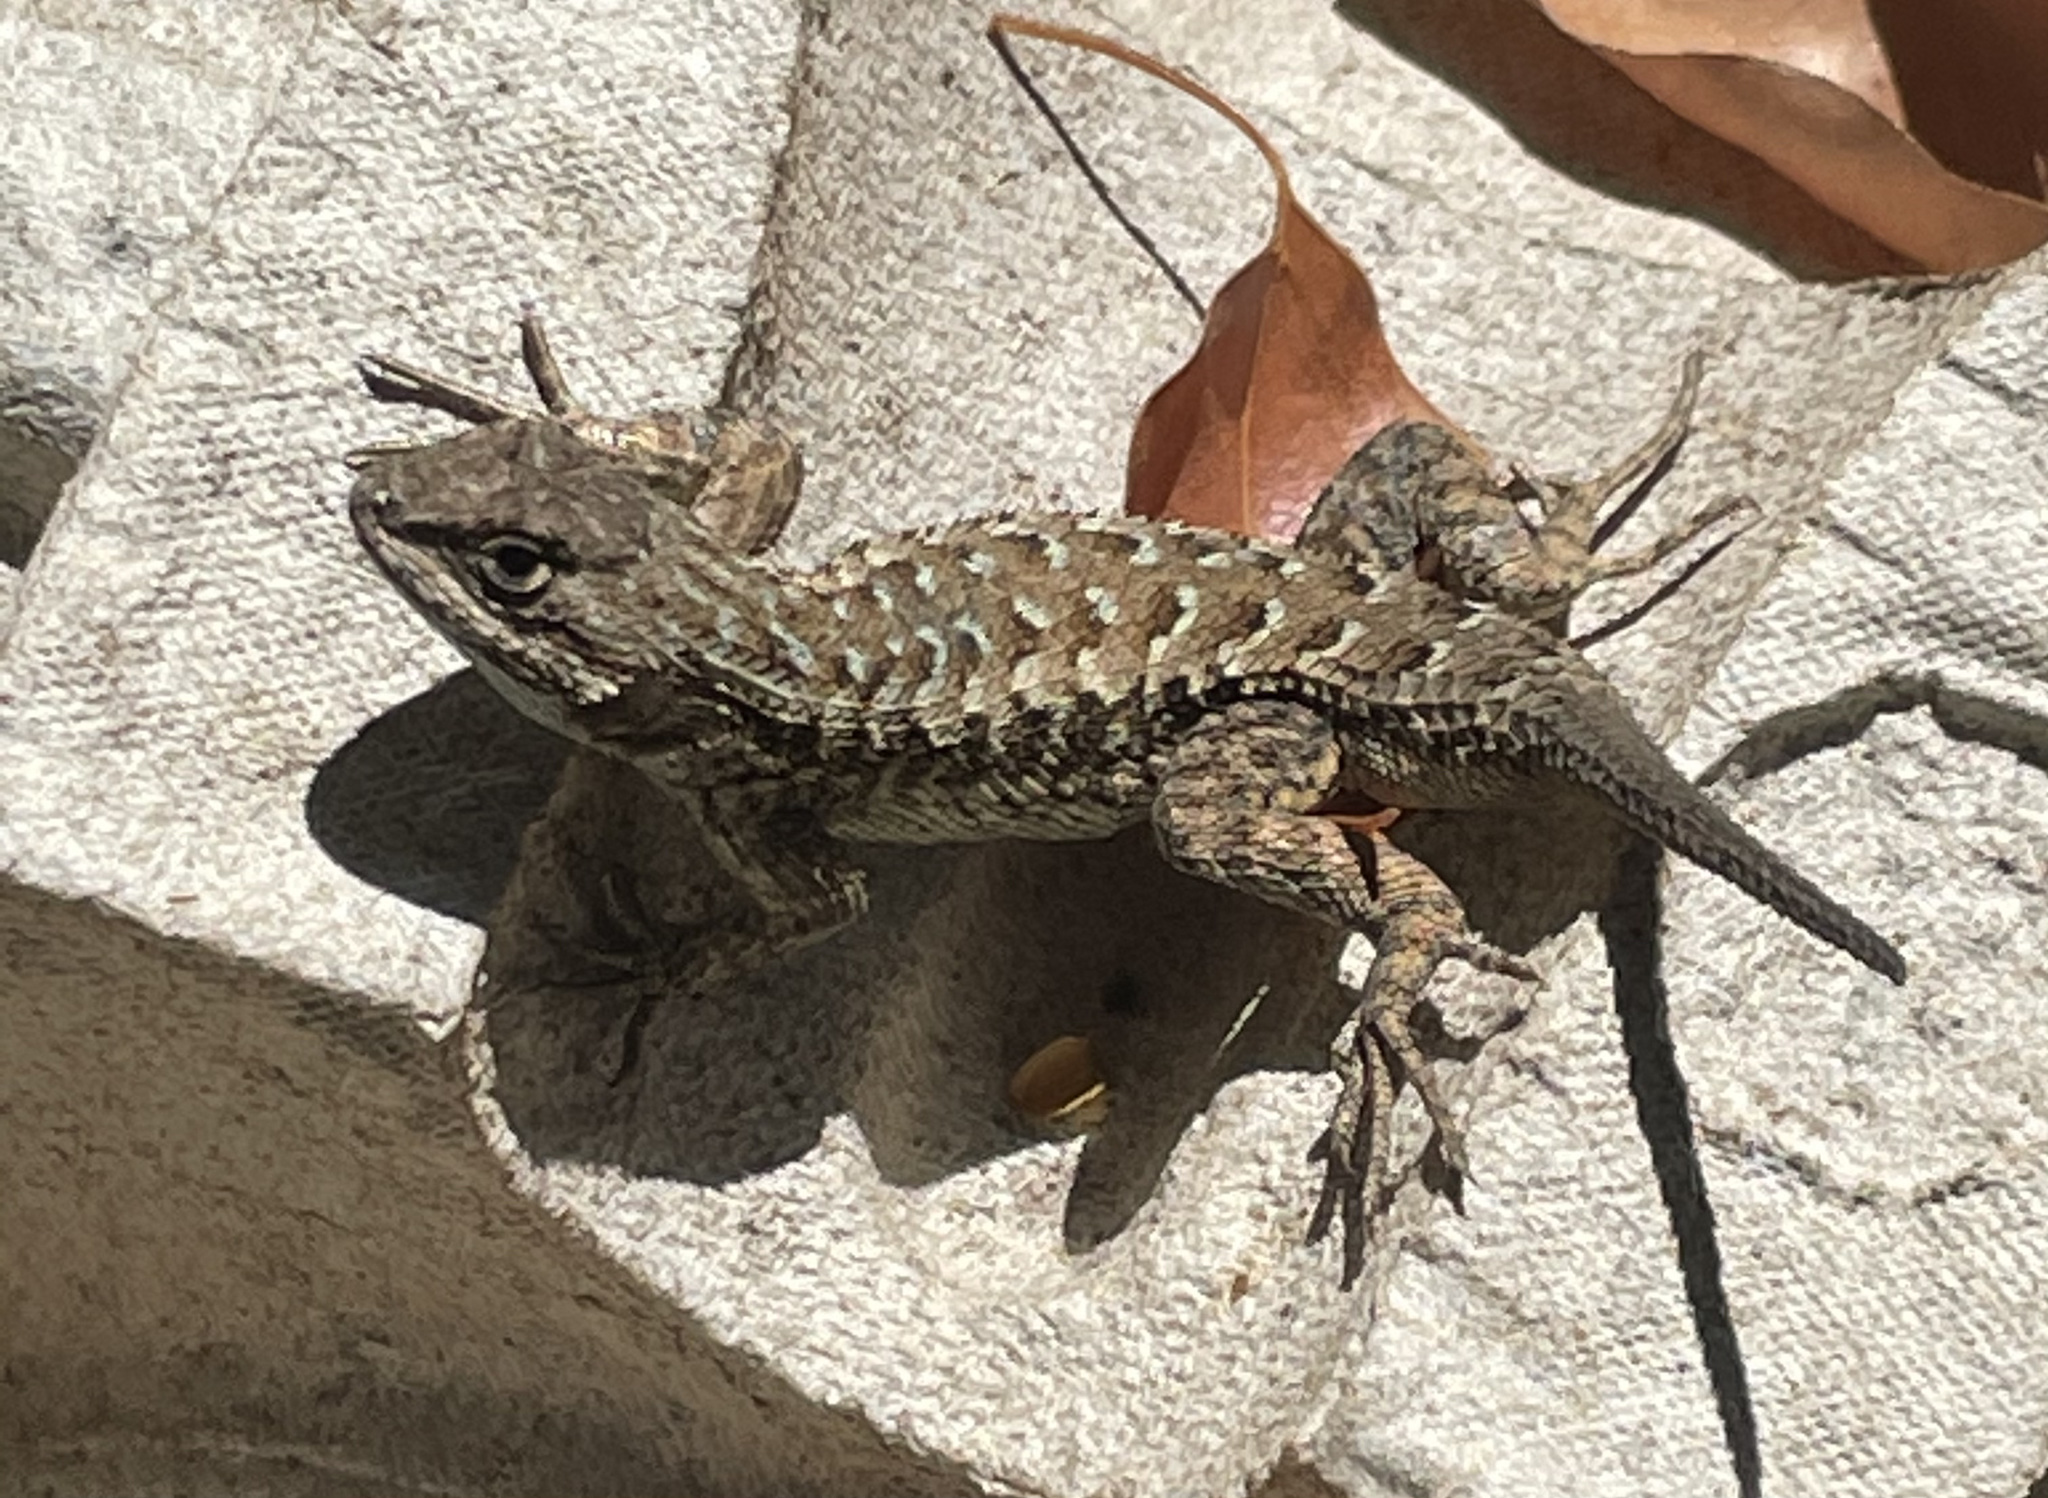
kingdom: Animalia
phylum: Chordata
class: Squamata
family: Phrynosomatidae
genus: Sceloporus
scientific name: Sceloporus occidentalis
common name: Western fence lizard
